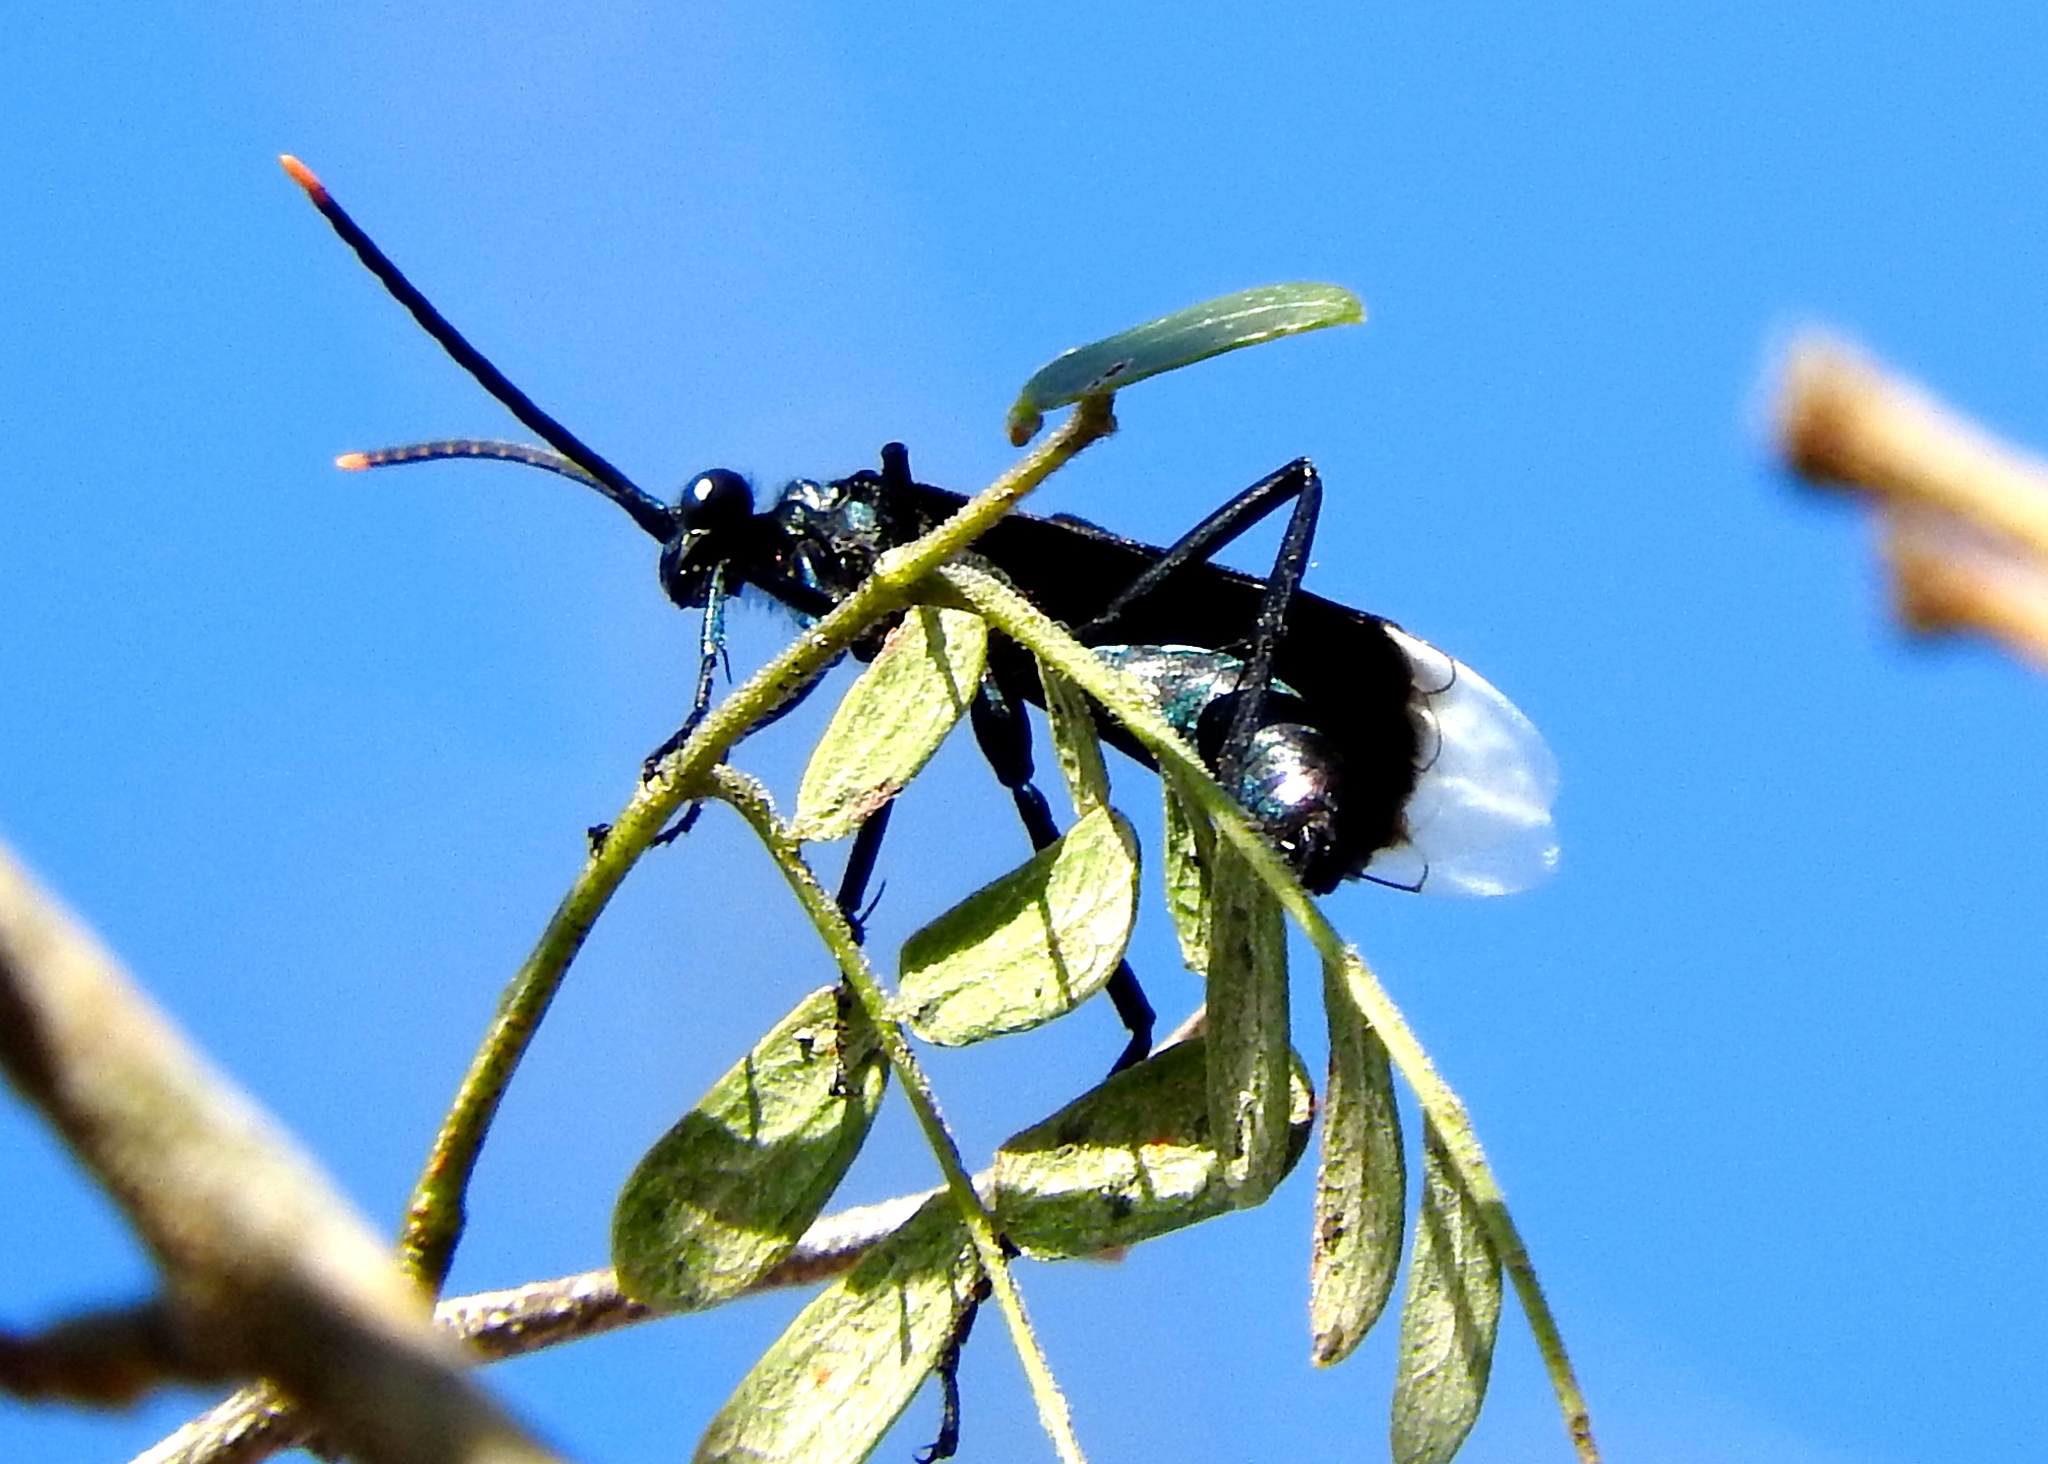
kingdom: Animalia
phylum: Arthropoda
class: Insecta
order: Hymenoptera
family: Pompilidae
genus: Pepsis
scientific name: Pepsis
